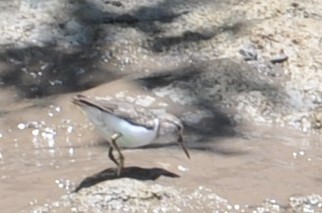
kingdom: Animalia
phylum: Chordata
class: Aves
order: Charadriiformes
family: Scolopacidae
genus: Actitis
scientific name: Actitis macularius
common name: Spotted sandpiper
